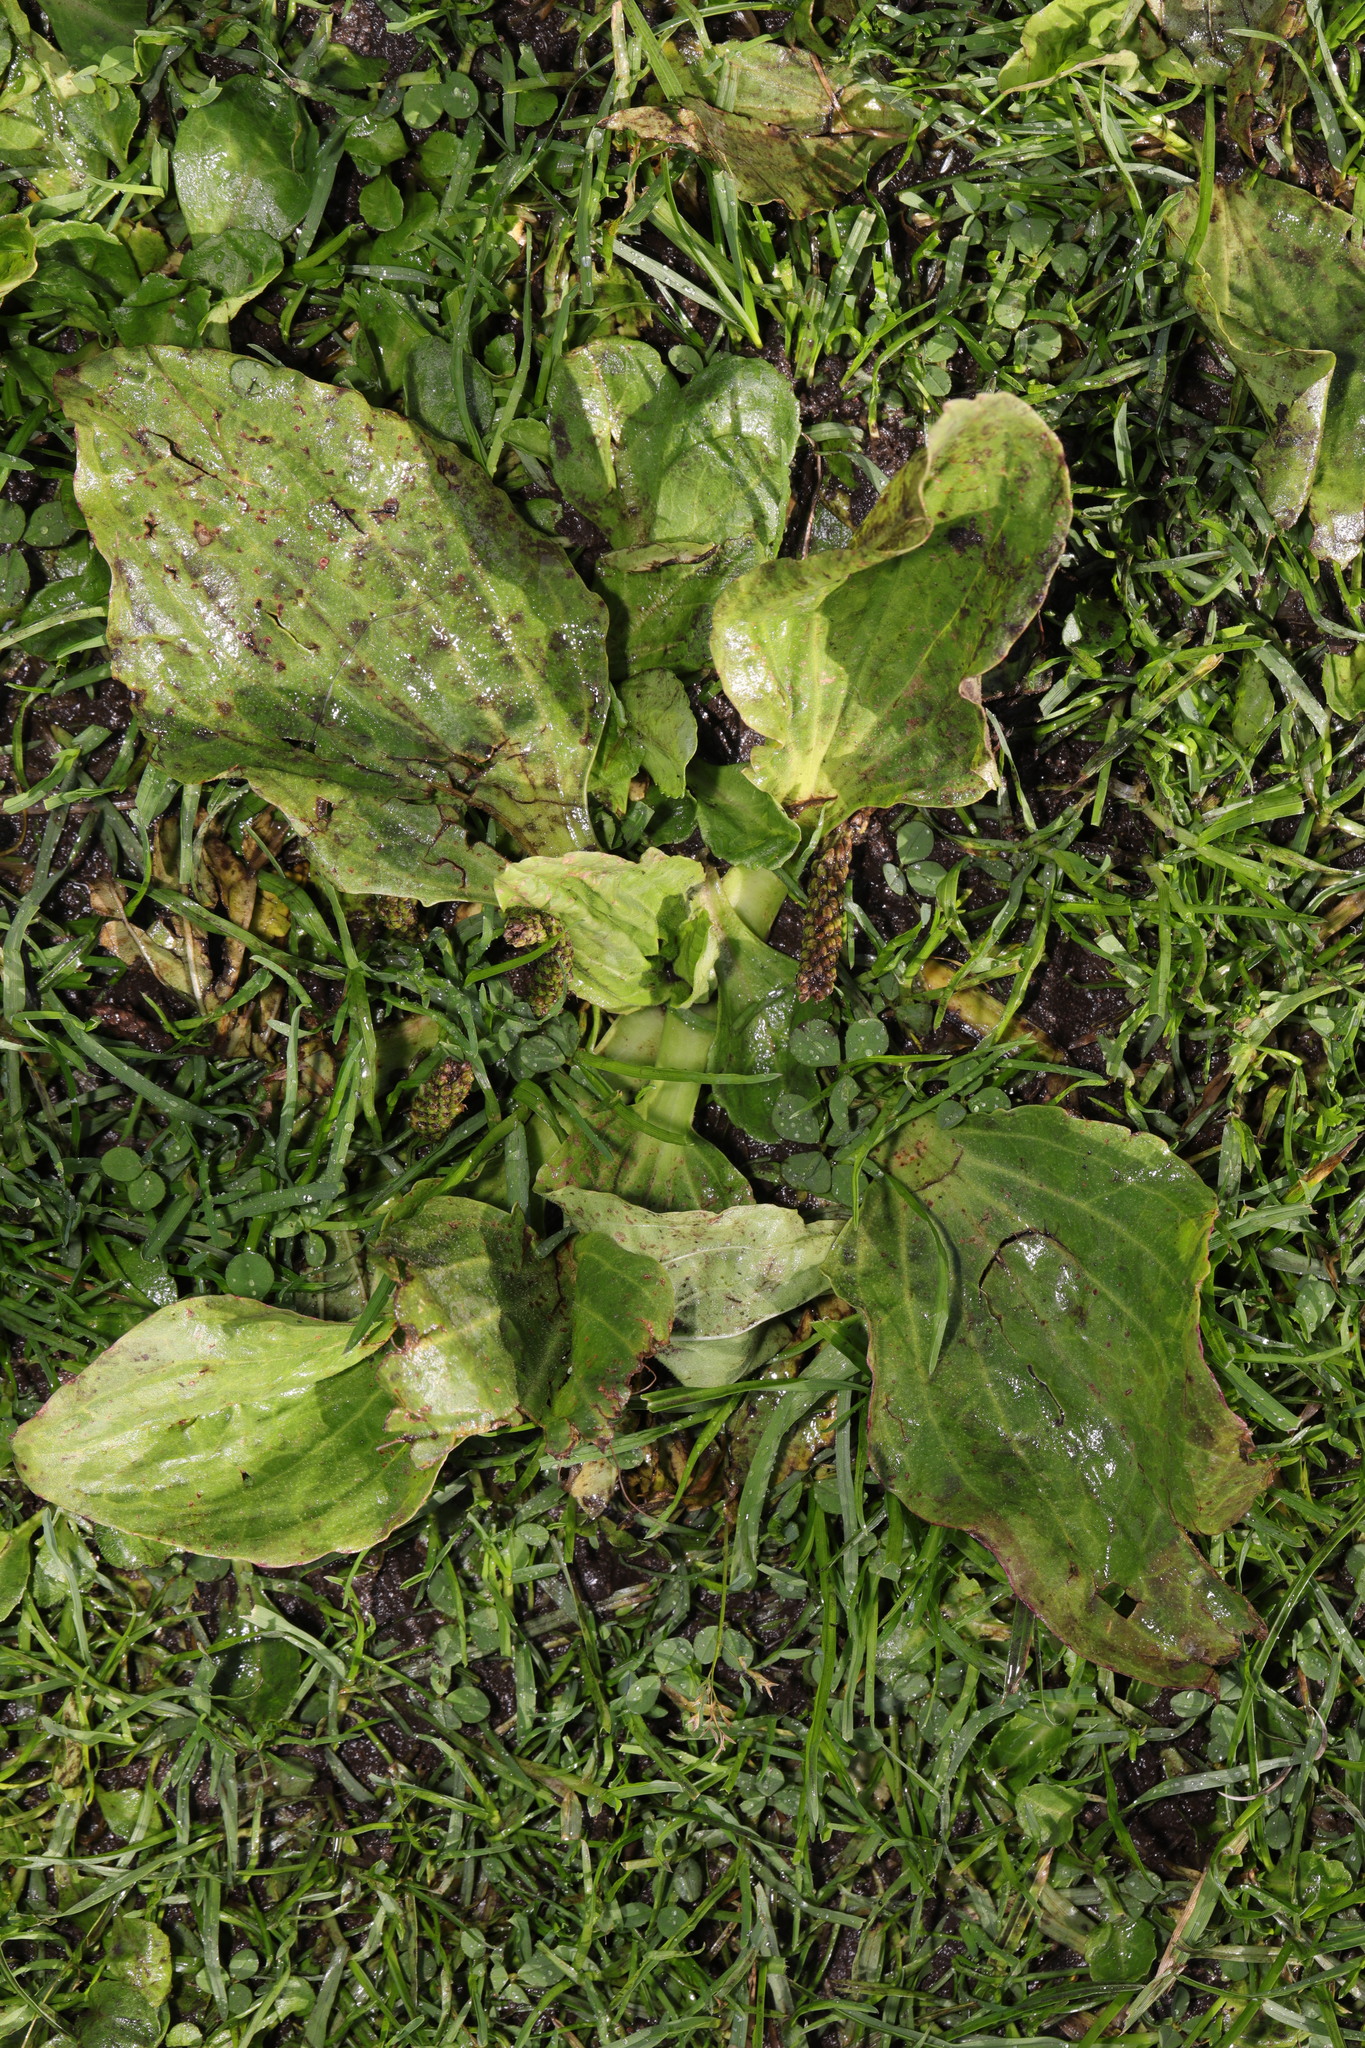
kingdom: Plantae
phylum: Tracheophyta
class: Magnoliopsida
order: Lamiales
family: Plantaginaceae
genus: Plantago
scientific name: Plantago major
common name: Common plantain
